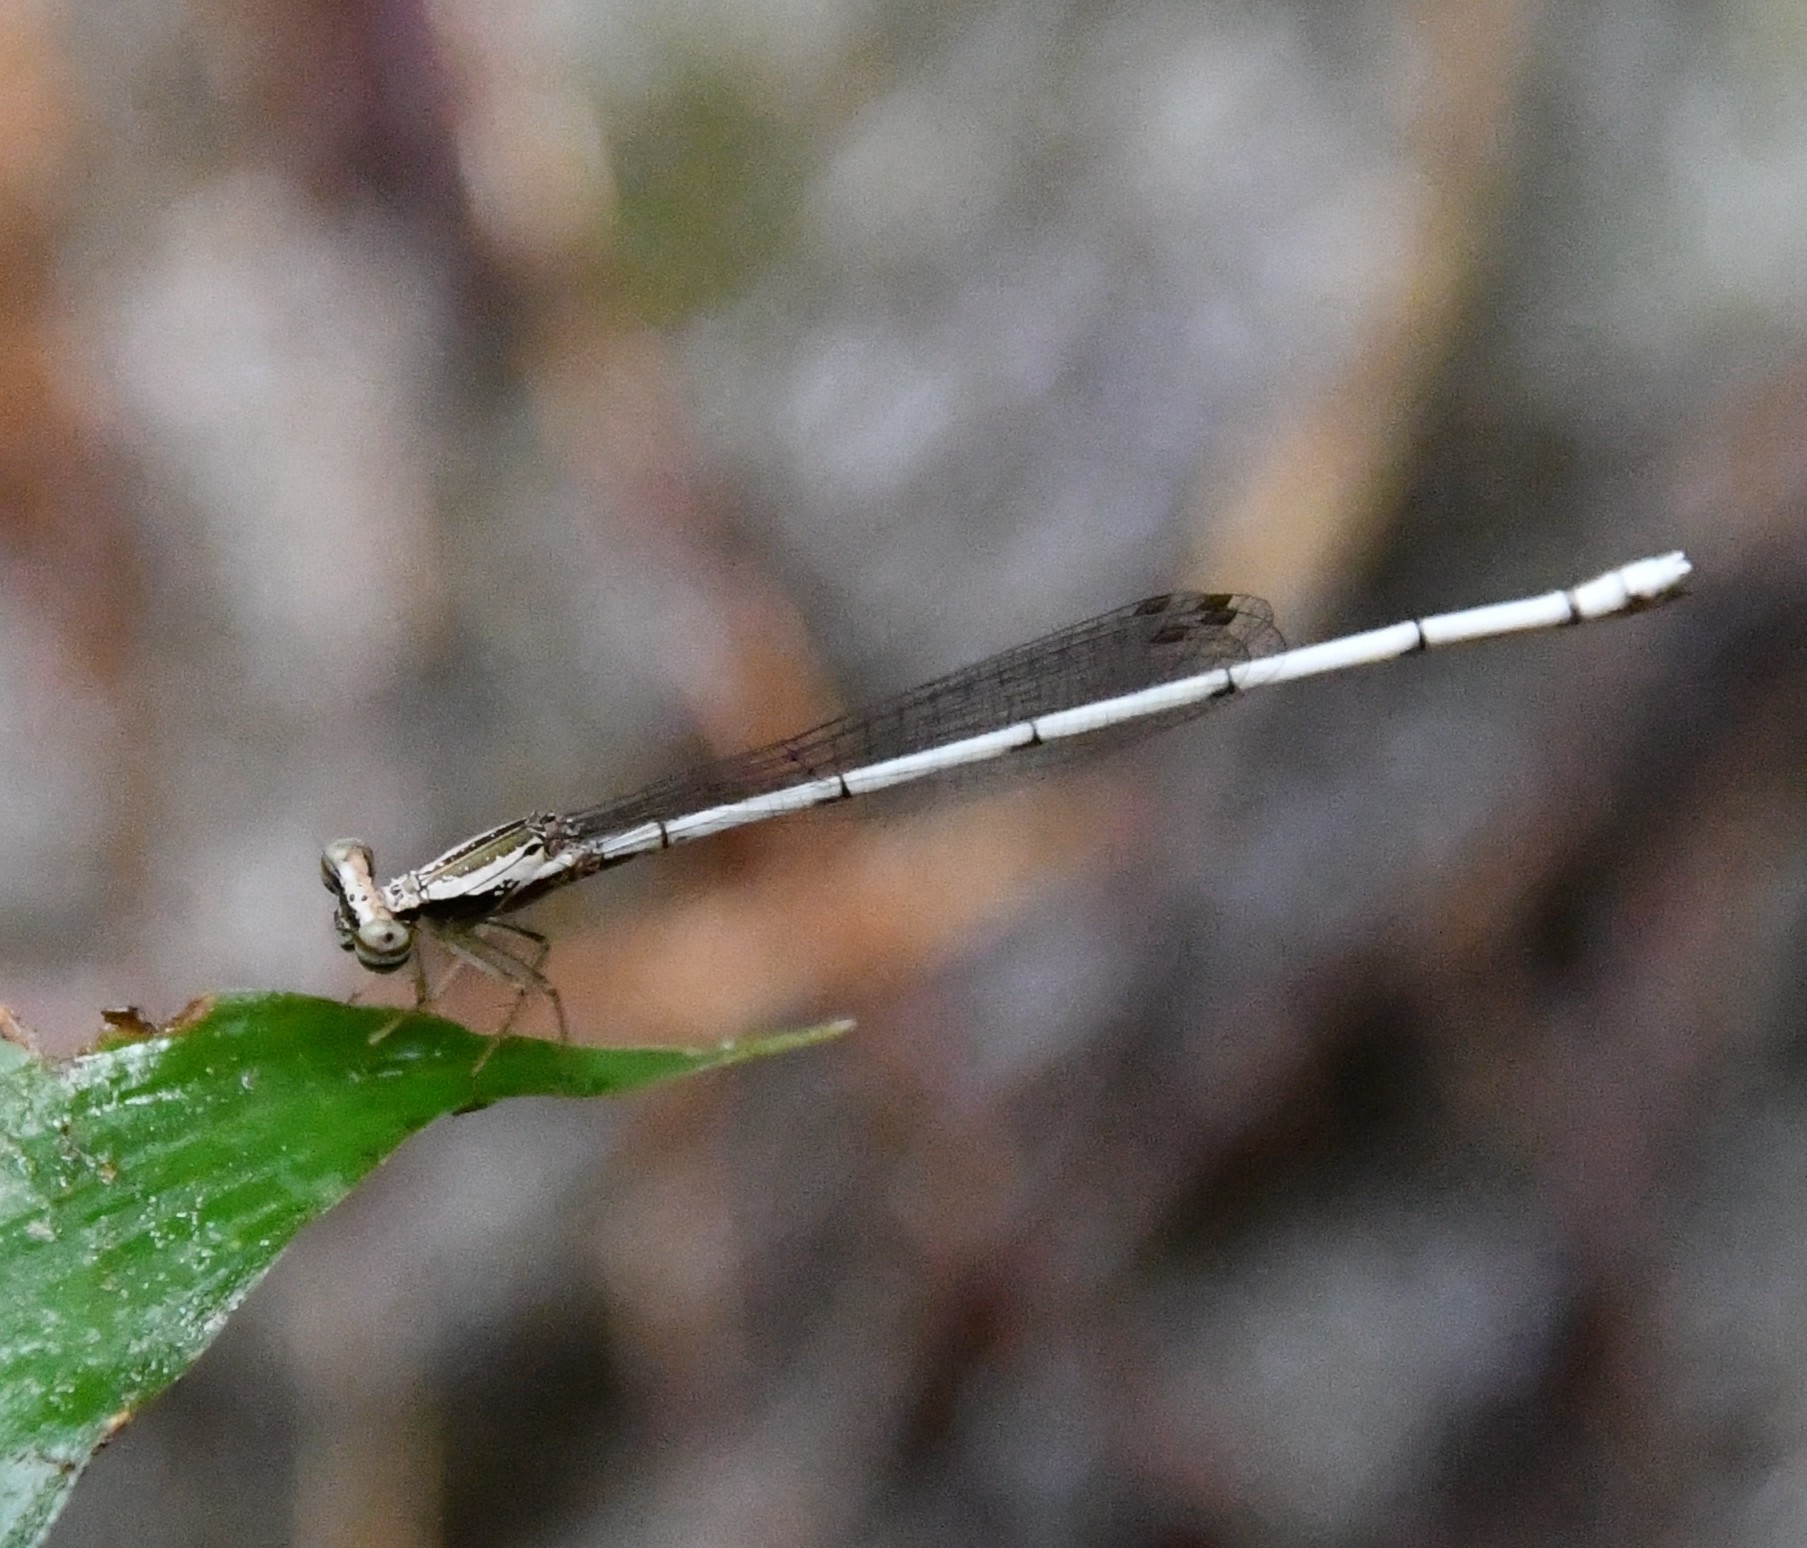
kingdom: Animalia
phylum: Arthropoda
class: Insecta
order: Odonata
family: Platycnemididae
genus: Copera
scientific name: Copera vittata
